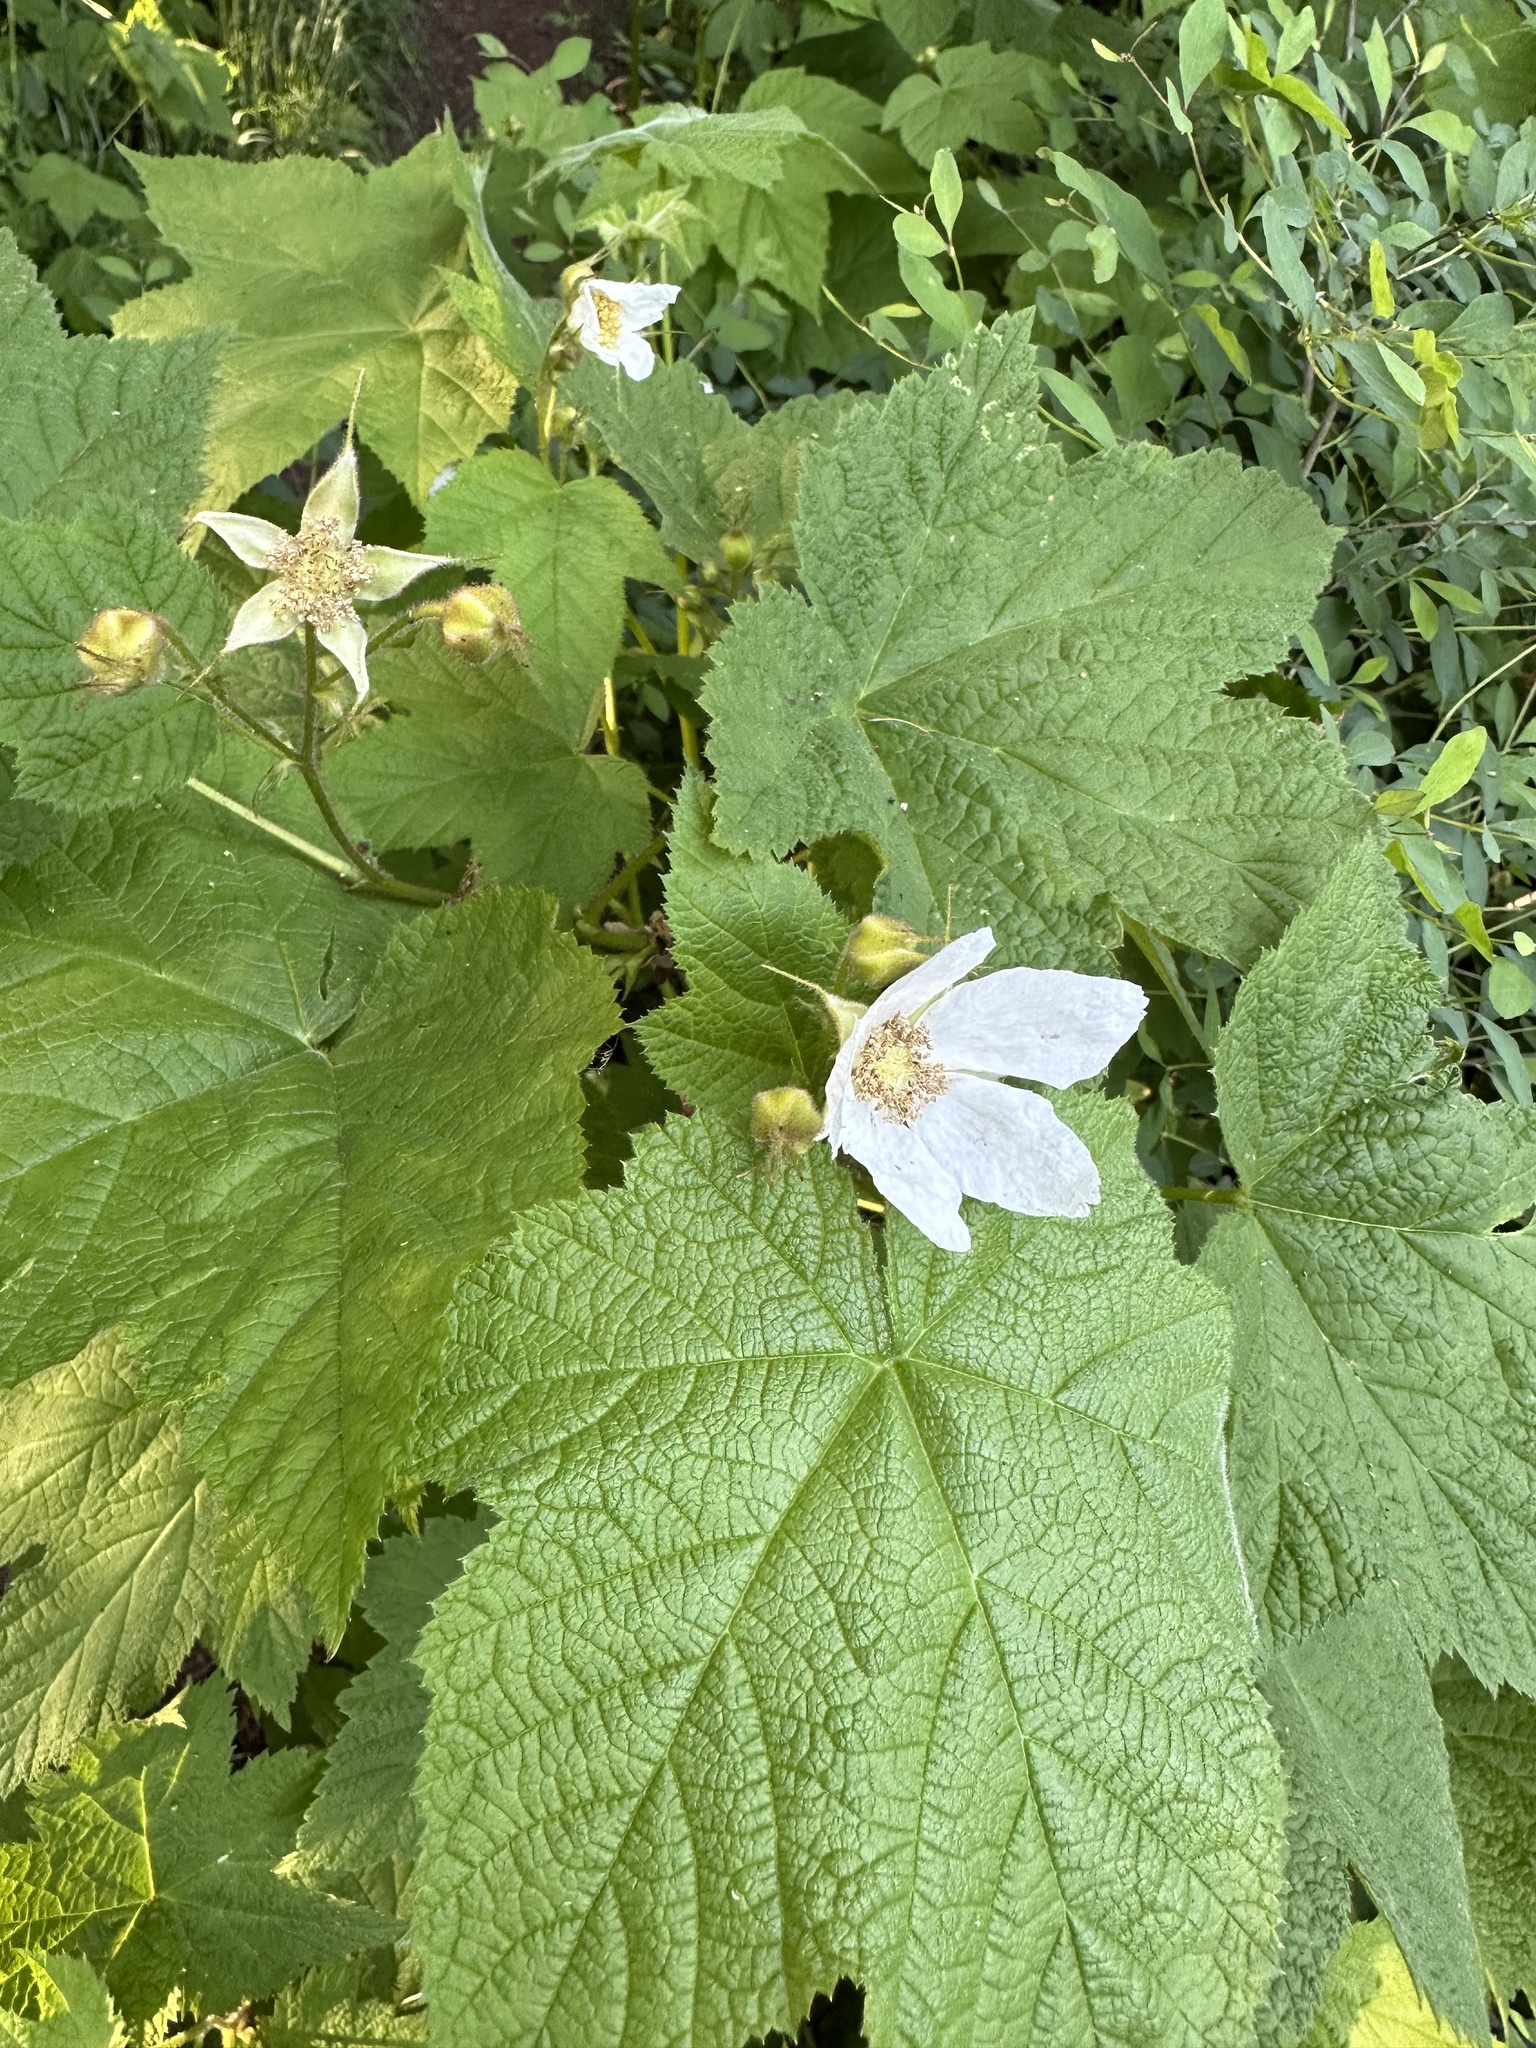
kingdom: Plantae
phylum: Tracheophyta
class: Magnoliopsida
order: Rosales
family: Rosaceae
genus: Rubus
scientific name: Rubus parviflorus
